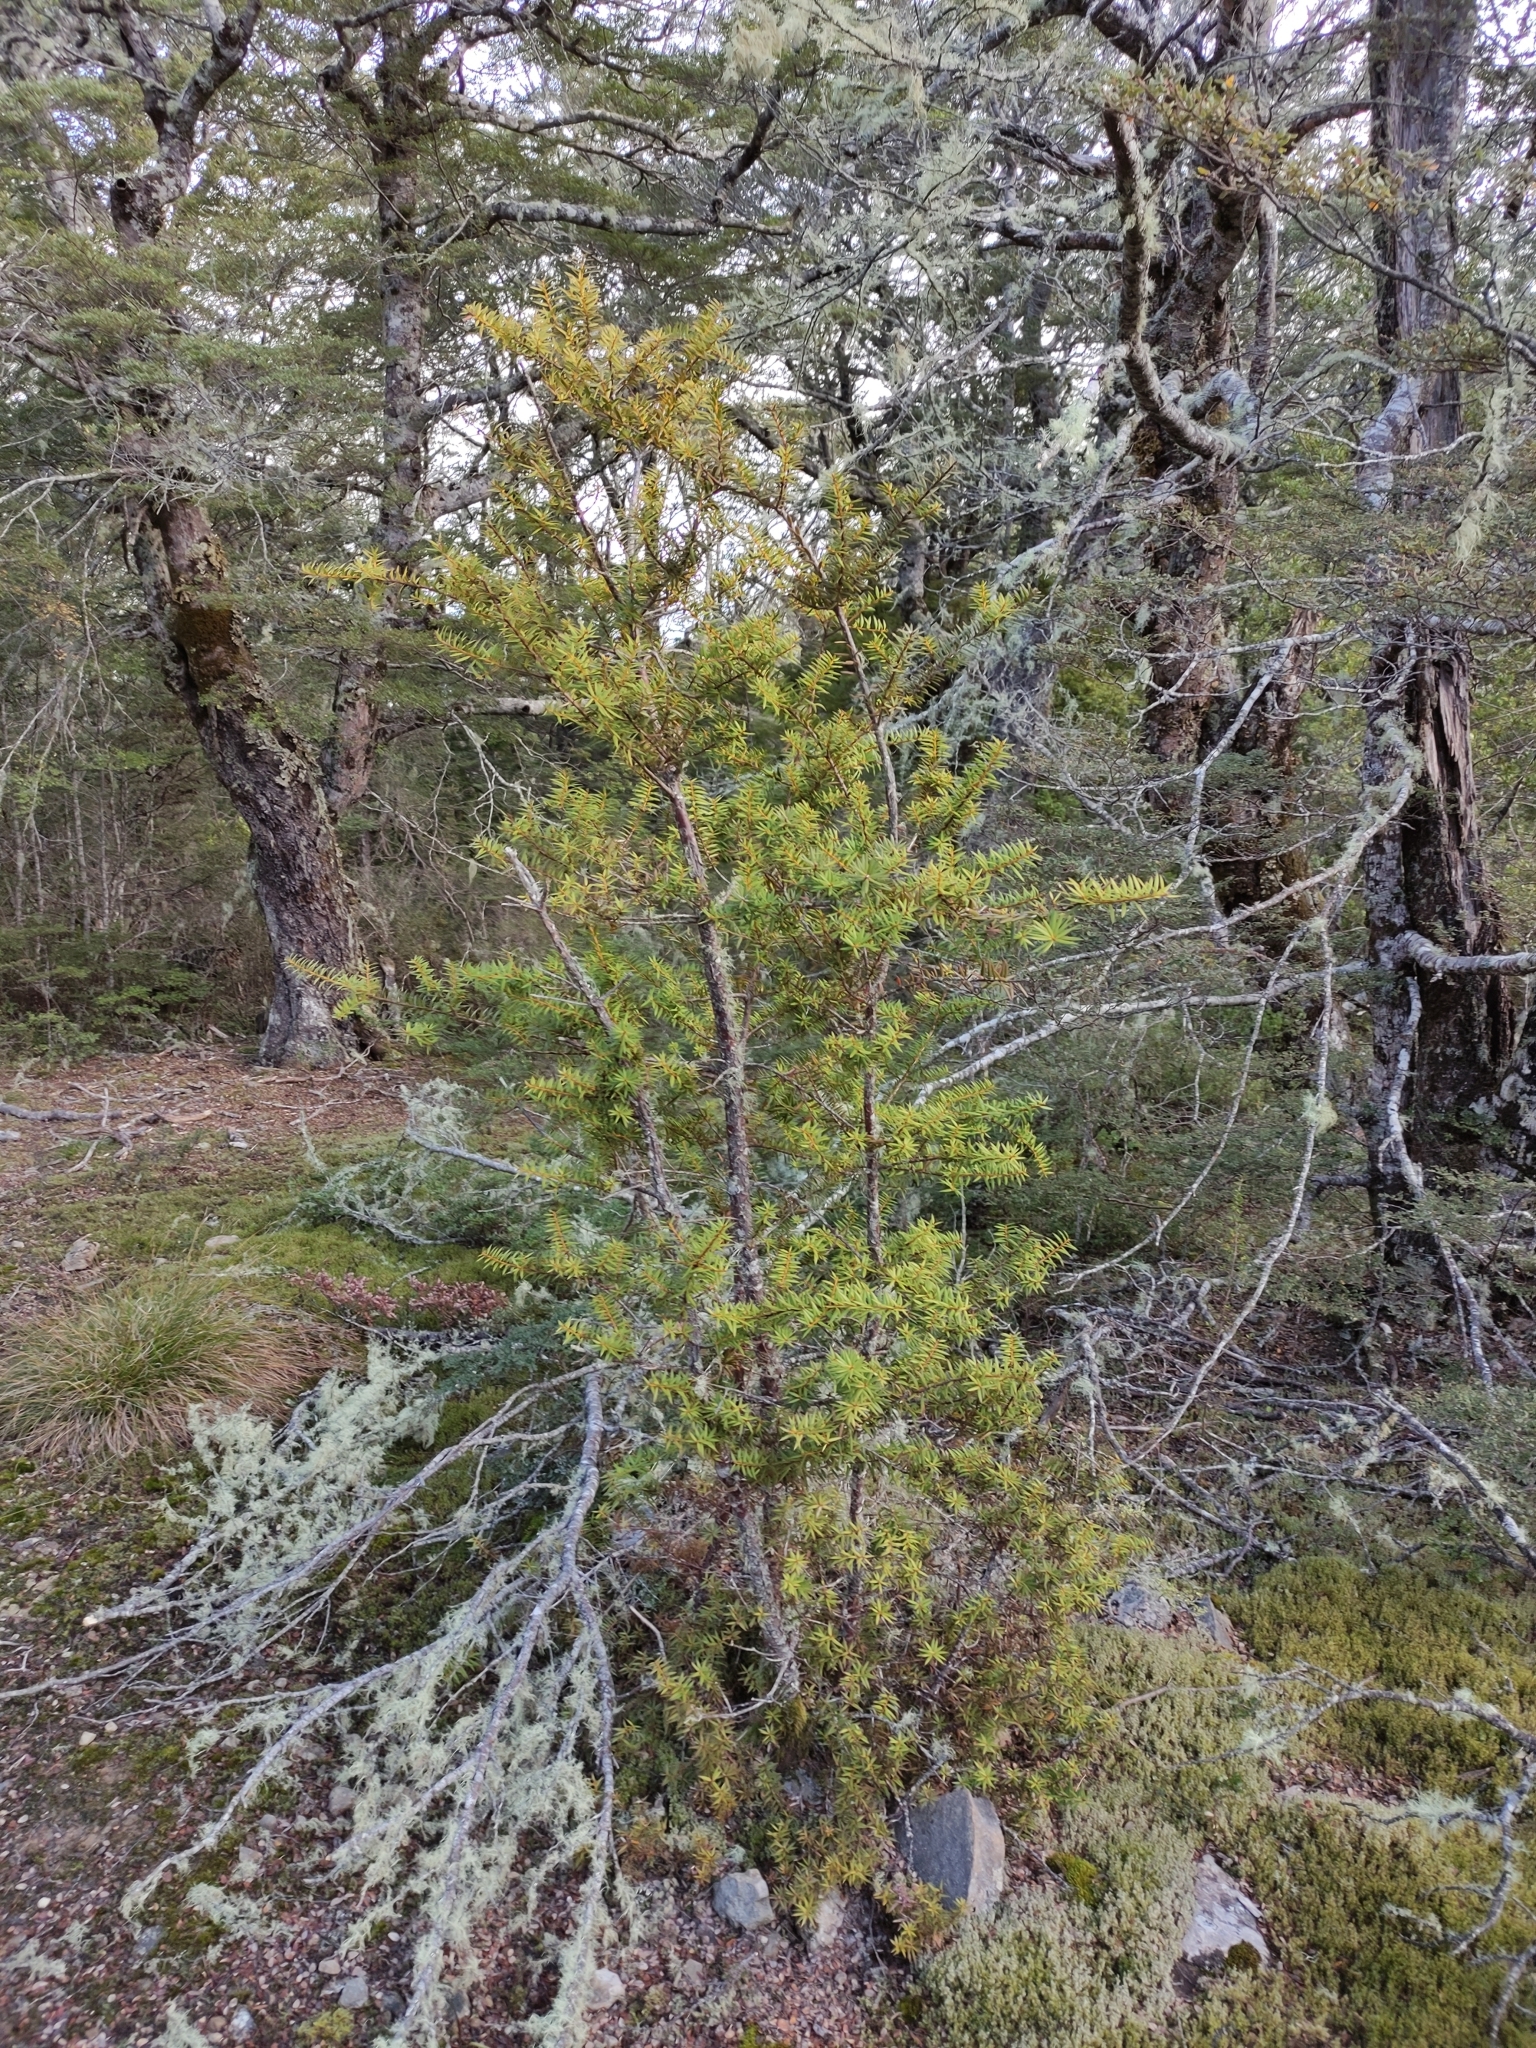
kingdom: Plantae
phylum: Tracheophyta
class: Pinopsida
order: Pinales
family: Podocarpaceae
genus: Podocarpus
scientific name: Podocarpus laetus
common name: Hall's totara
